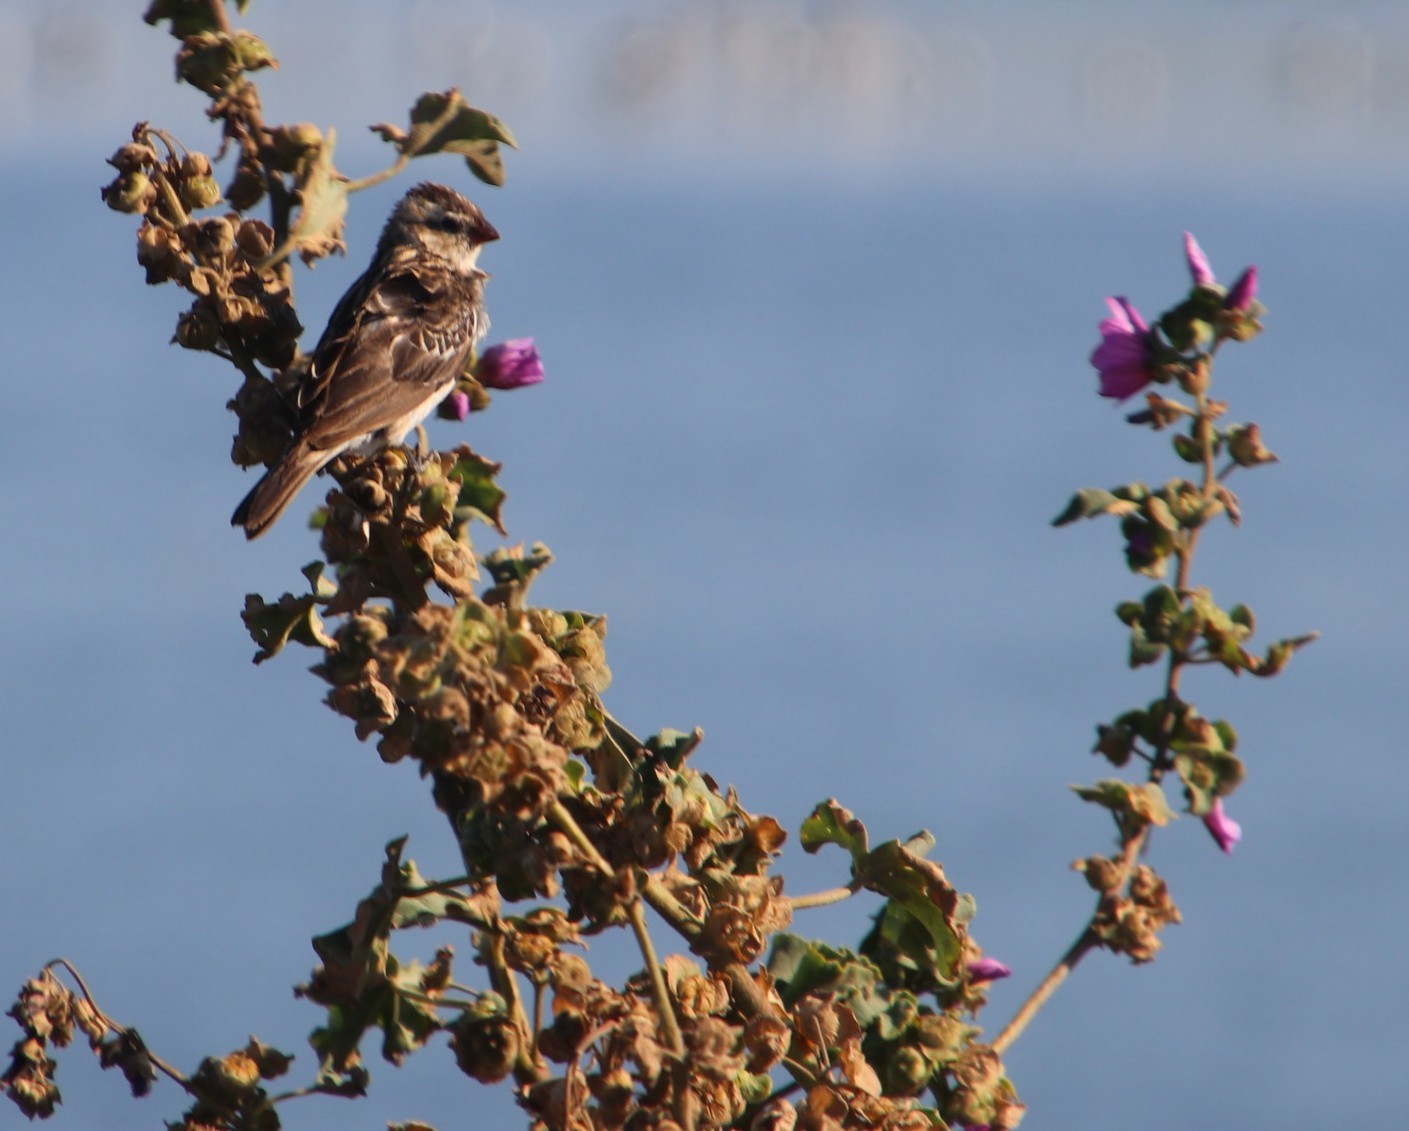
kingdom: Animalia
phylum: Chordata
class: Aves
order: Passeriformes
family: Viduidae
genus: Vidua
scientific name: Vidua macroura
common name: Pin-tailed whydah
